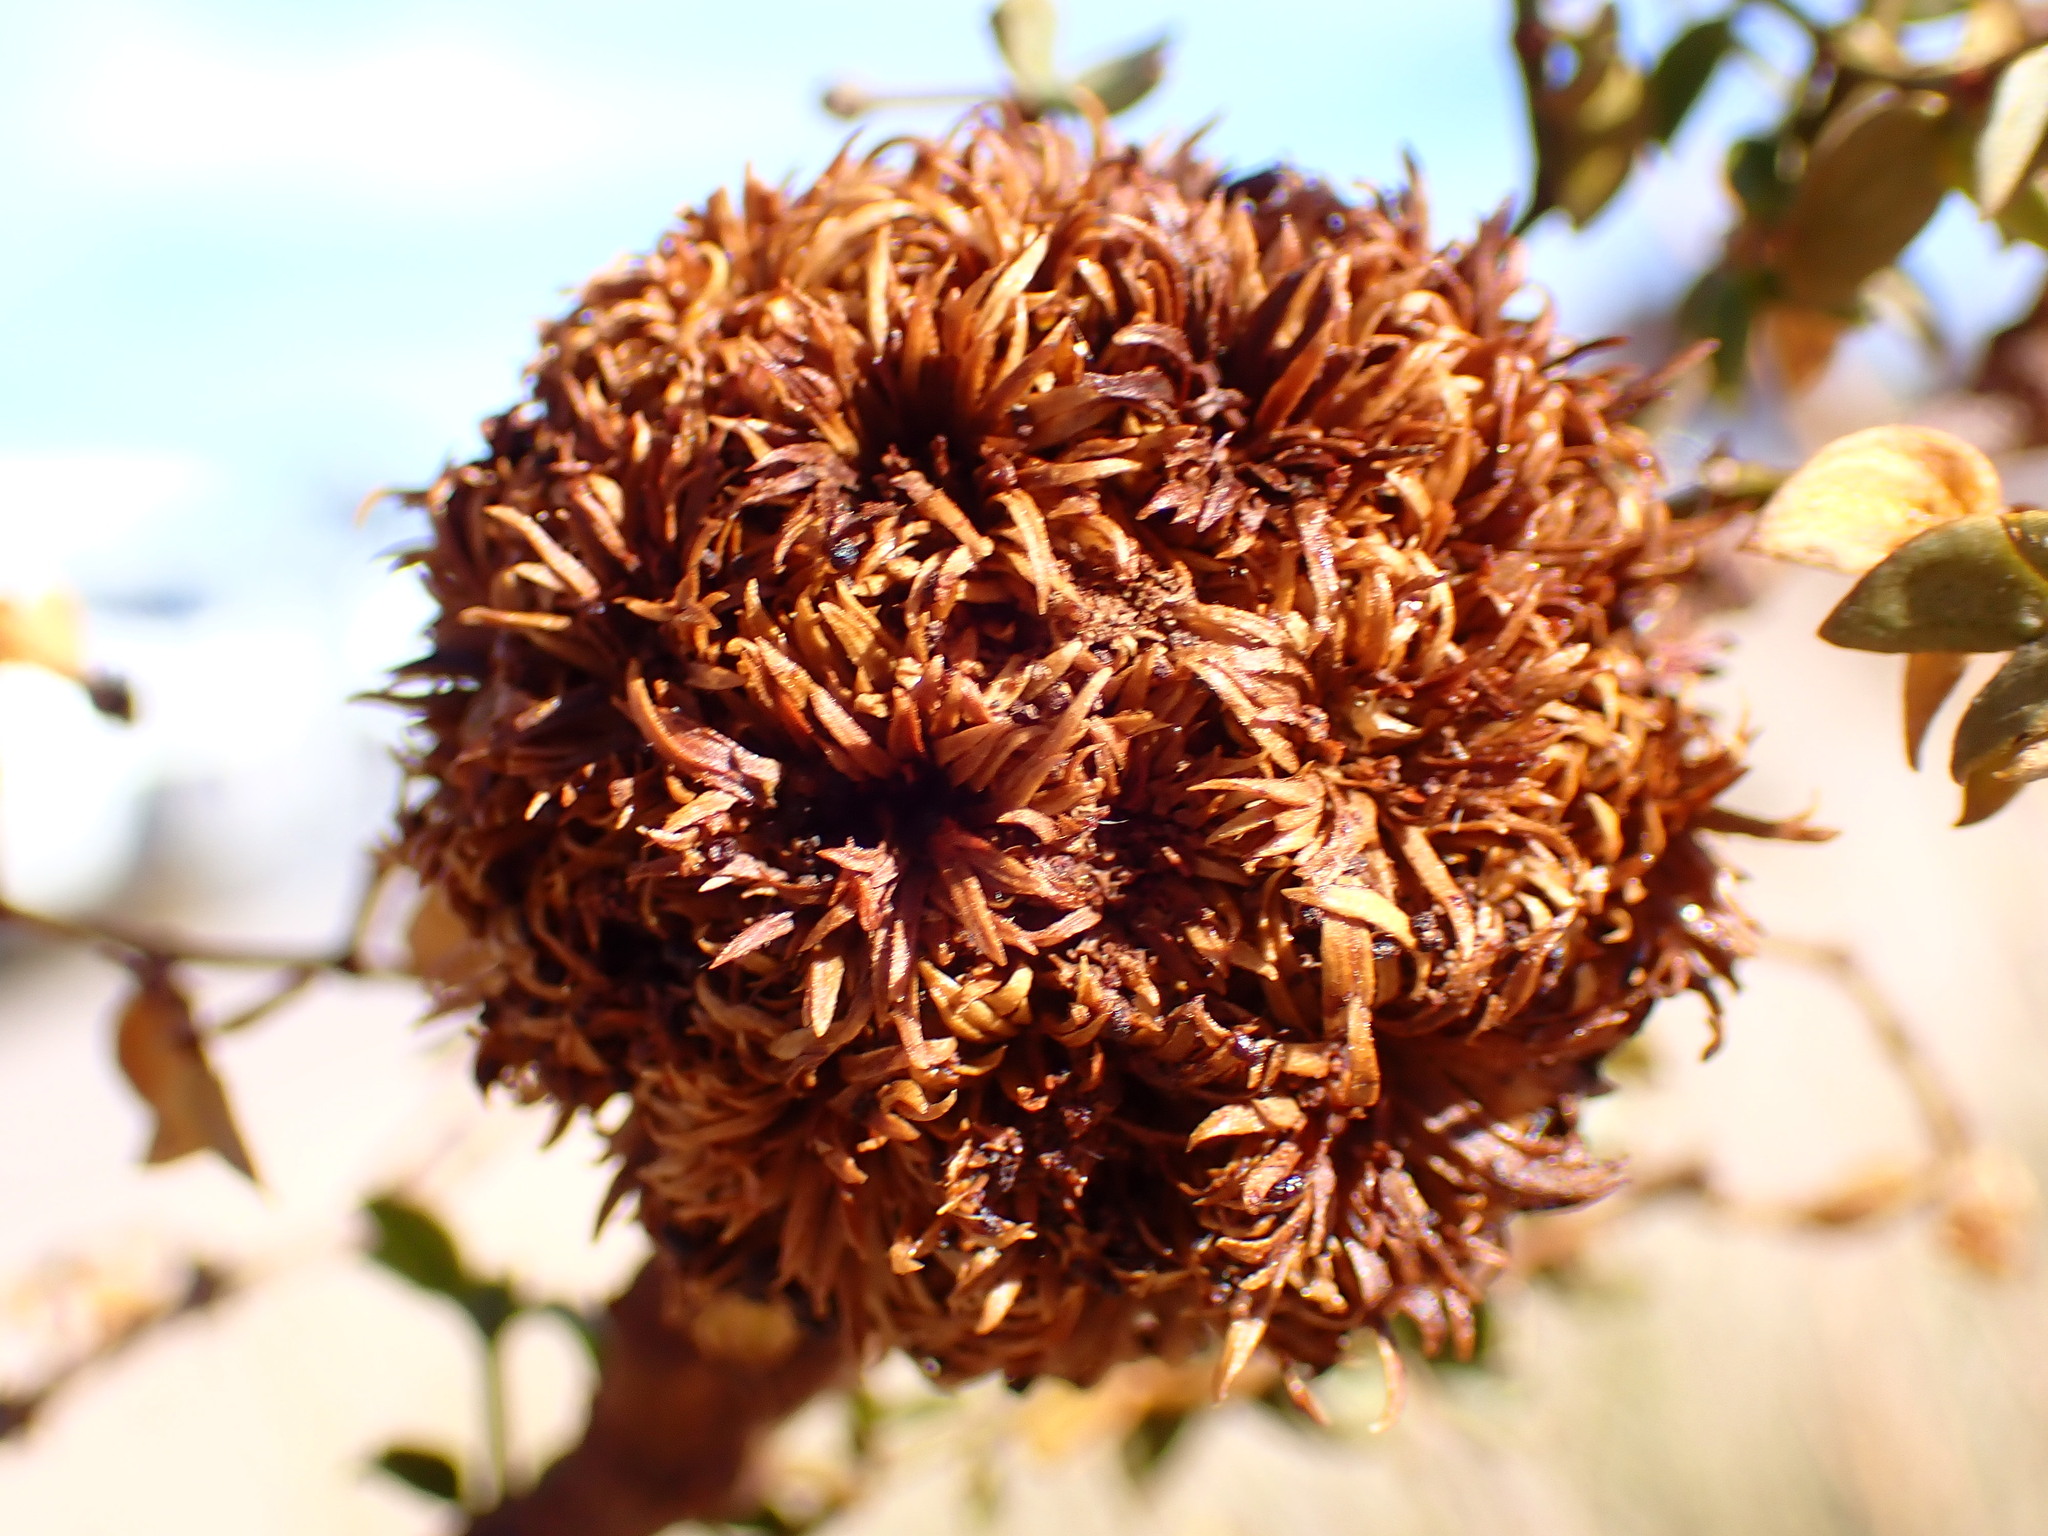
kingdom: Animalia
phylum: Arthropoda
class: Insecta
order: Diptera
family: Cecidomyiidae
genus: Asphondylia
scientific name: Asphondylia auripila
